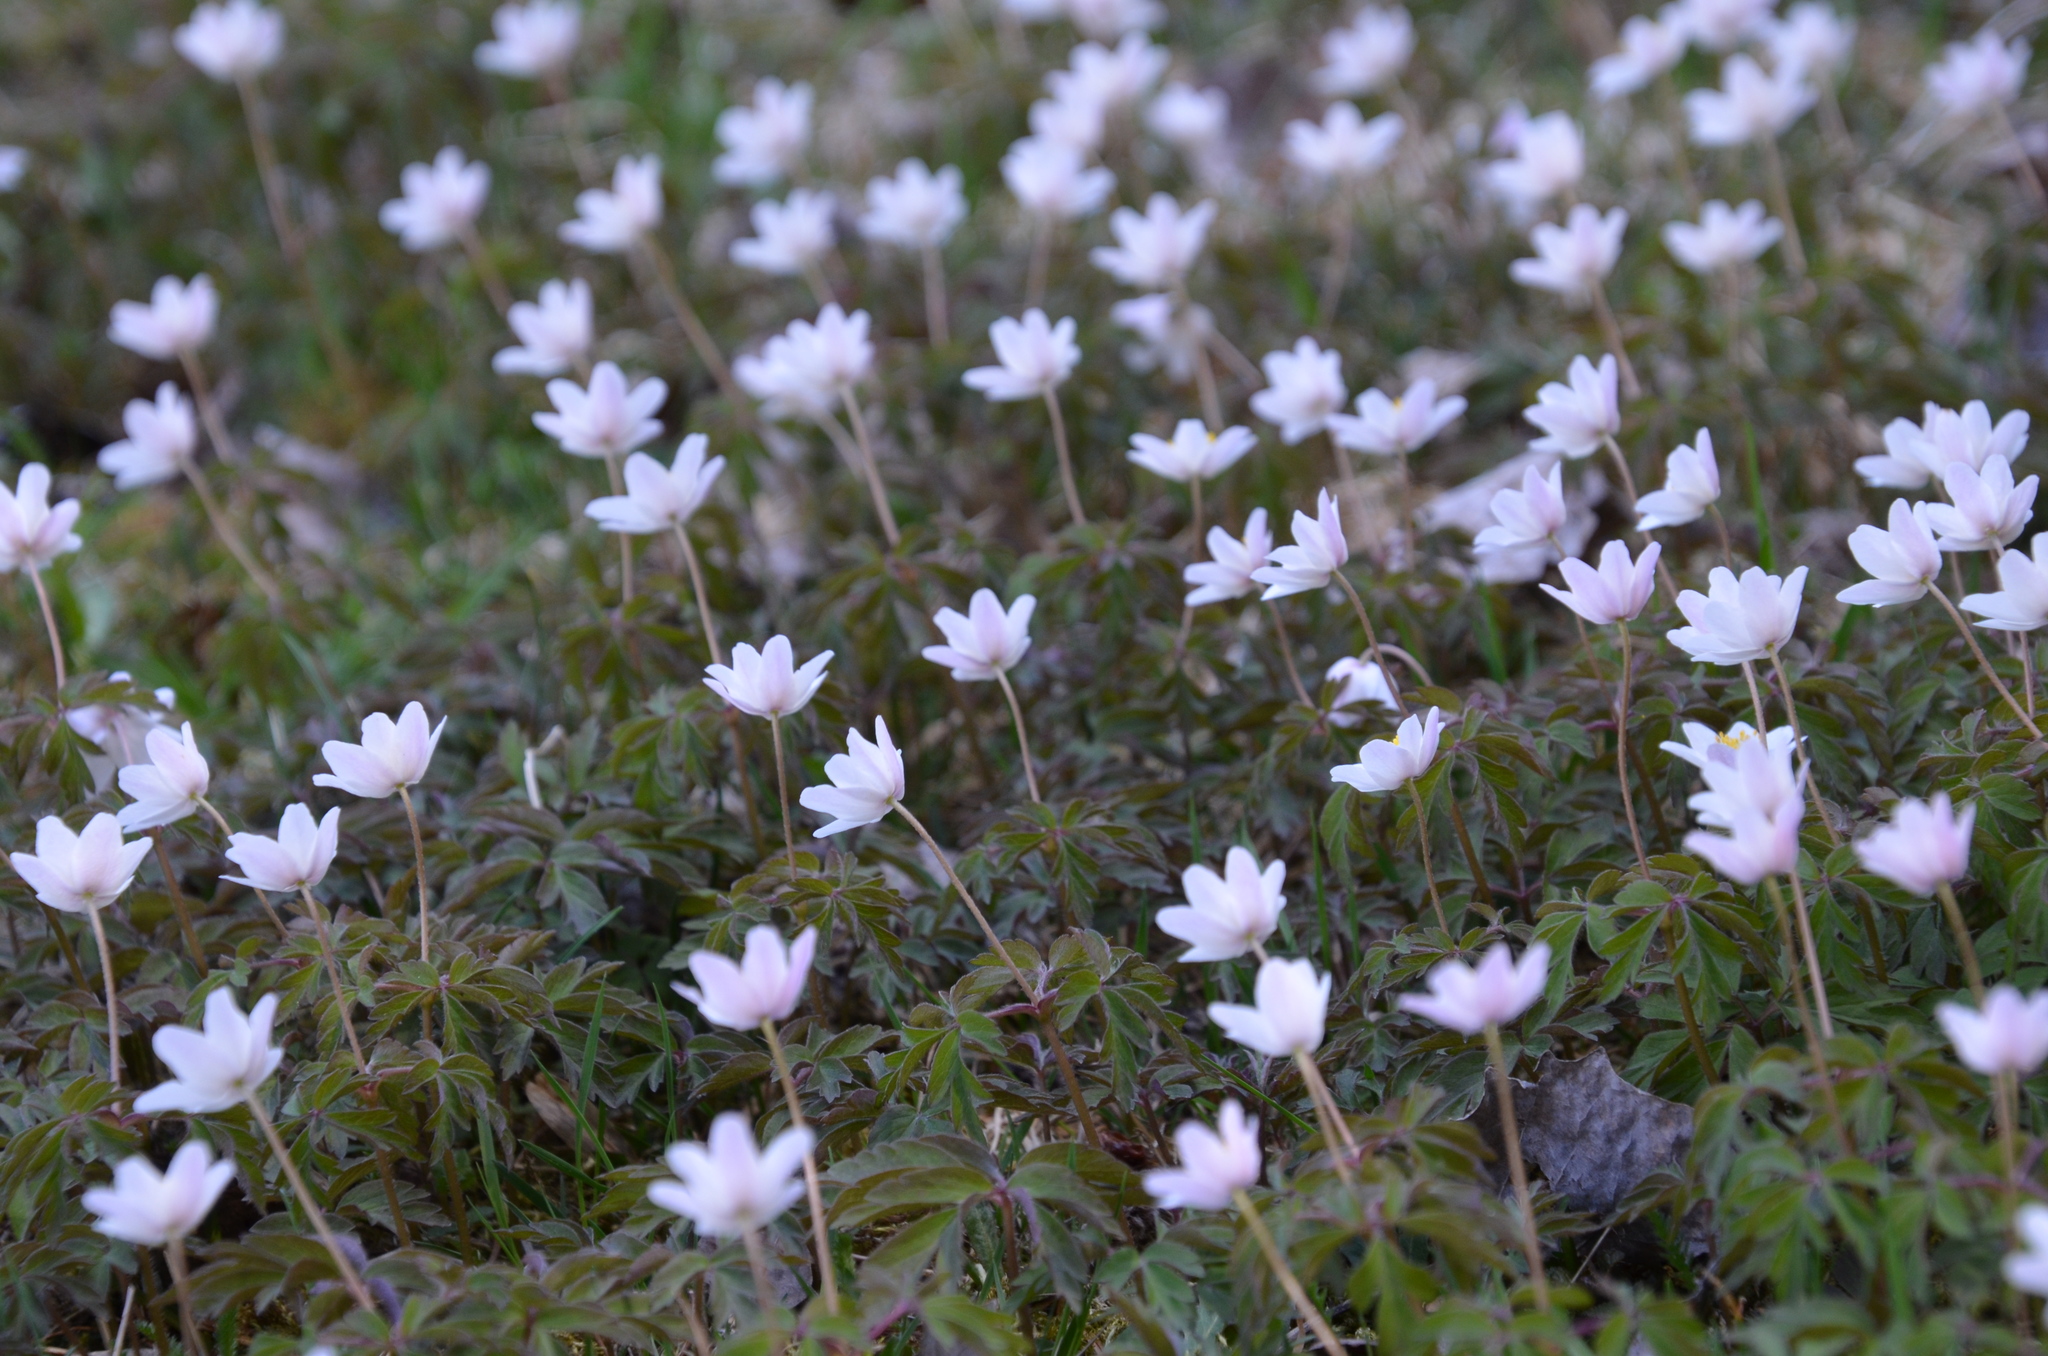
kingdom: Plantae
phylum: Tracheophyta
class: Magnoliopsida
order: Ranunculales
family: Ranunculaceae
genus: Anemone
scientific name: Anemone nemorosa
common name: Wood anemone
